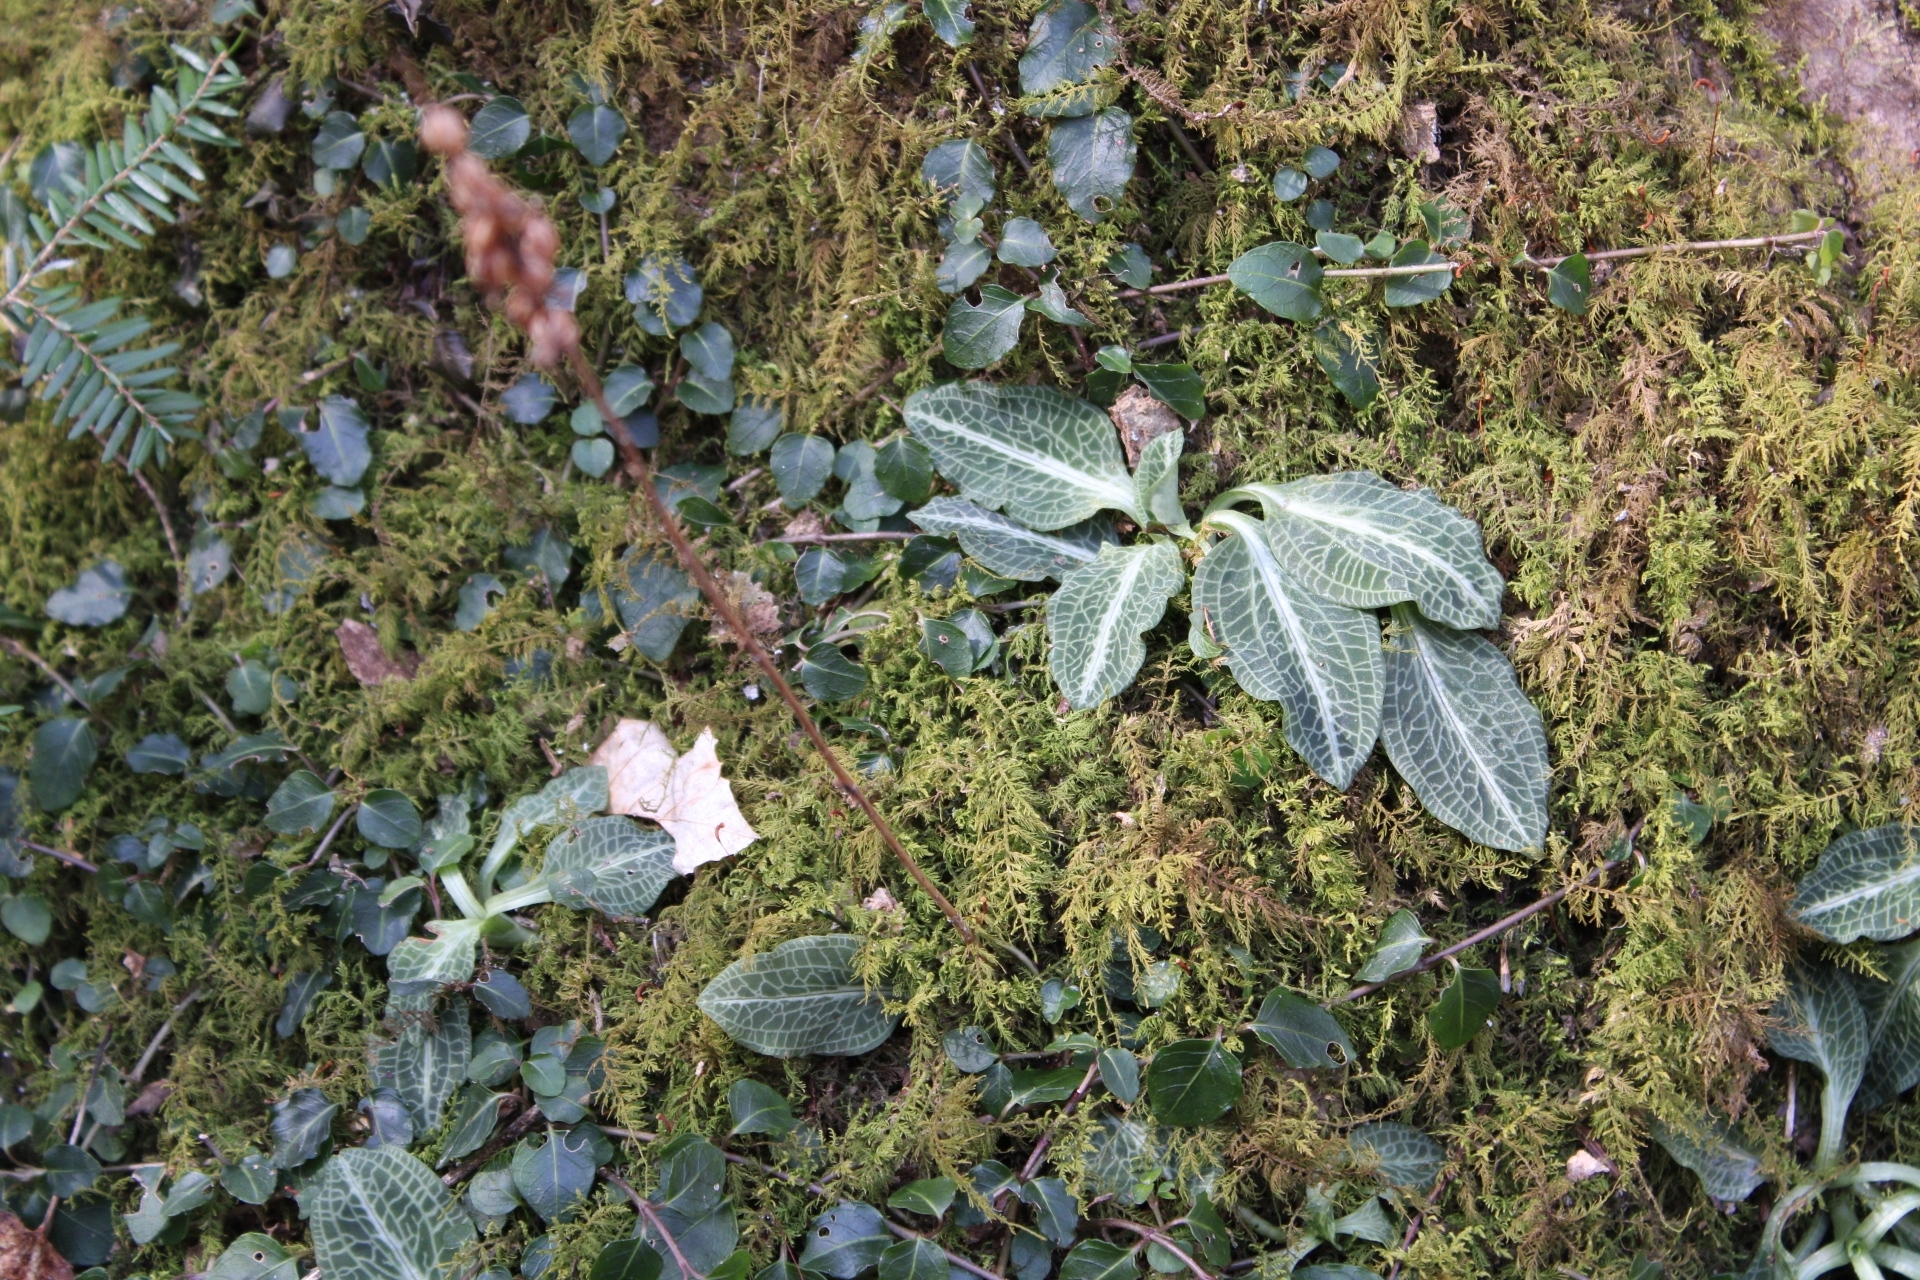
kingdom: Plantae
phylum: Tracheophyta
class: Liliopsida
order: Asparagales
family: Orchidaceae
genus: Goodyera
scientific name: Goodyera pubescens
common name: Downy rattlesnake-plantain
